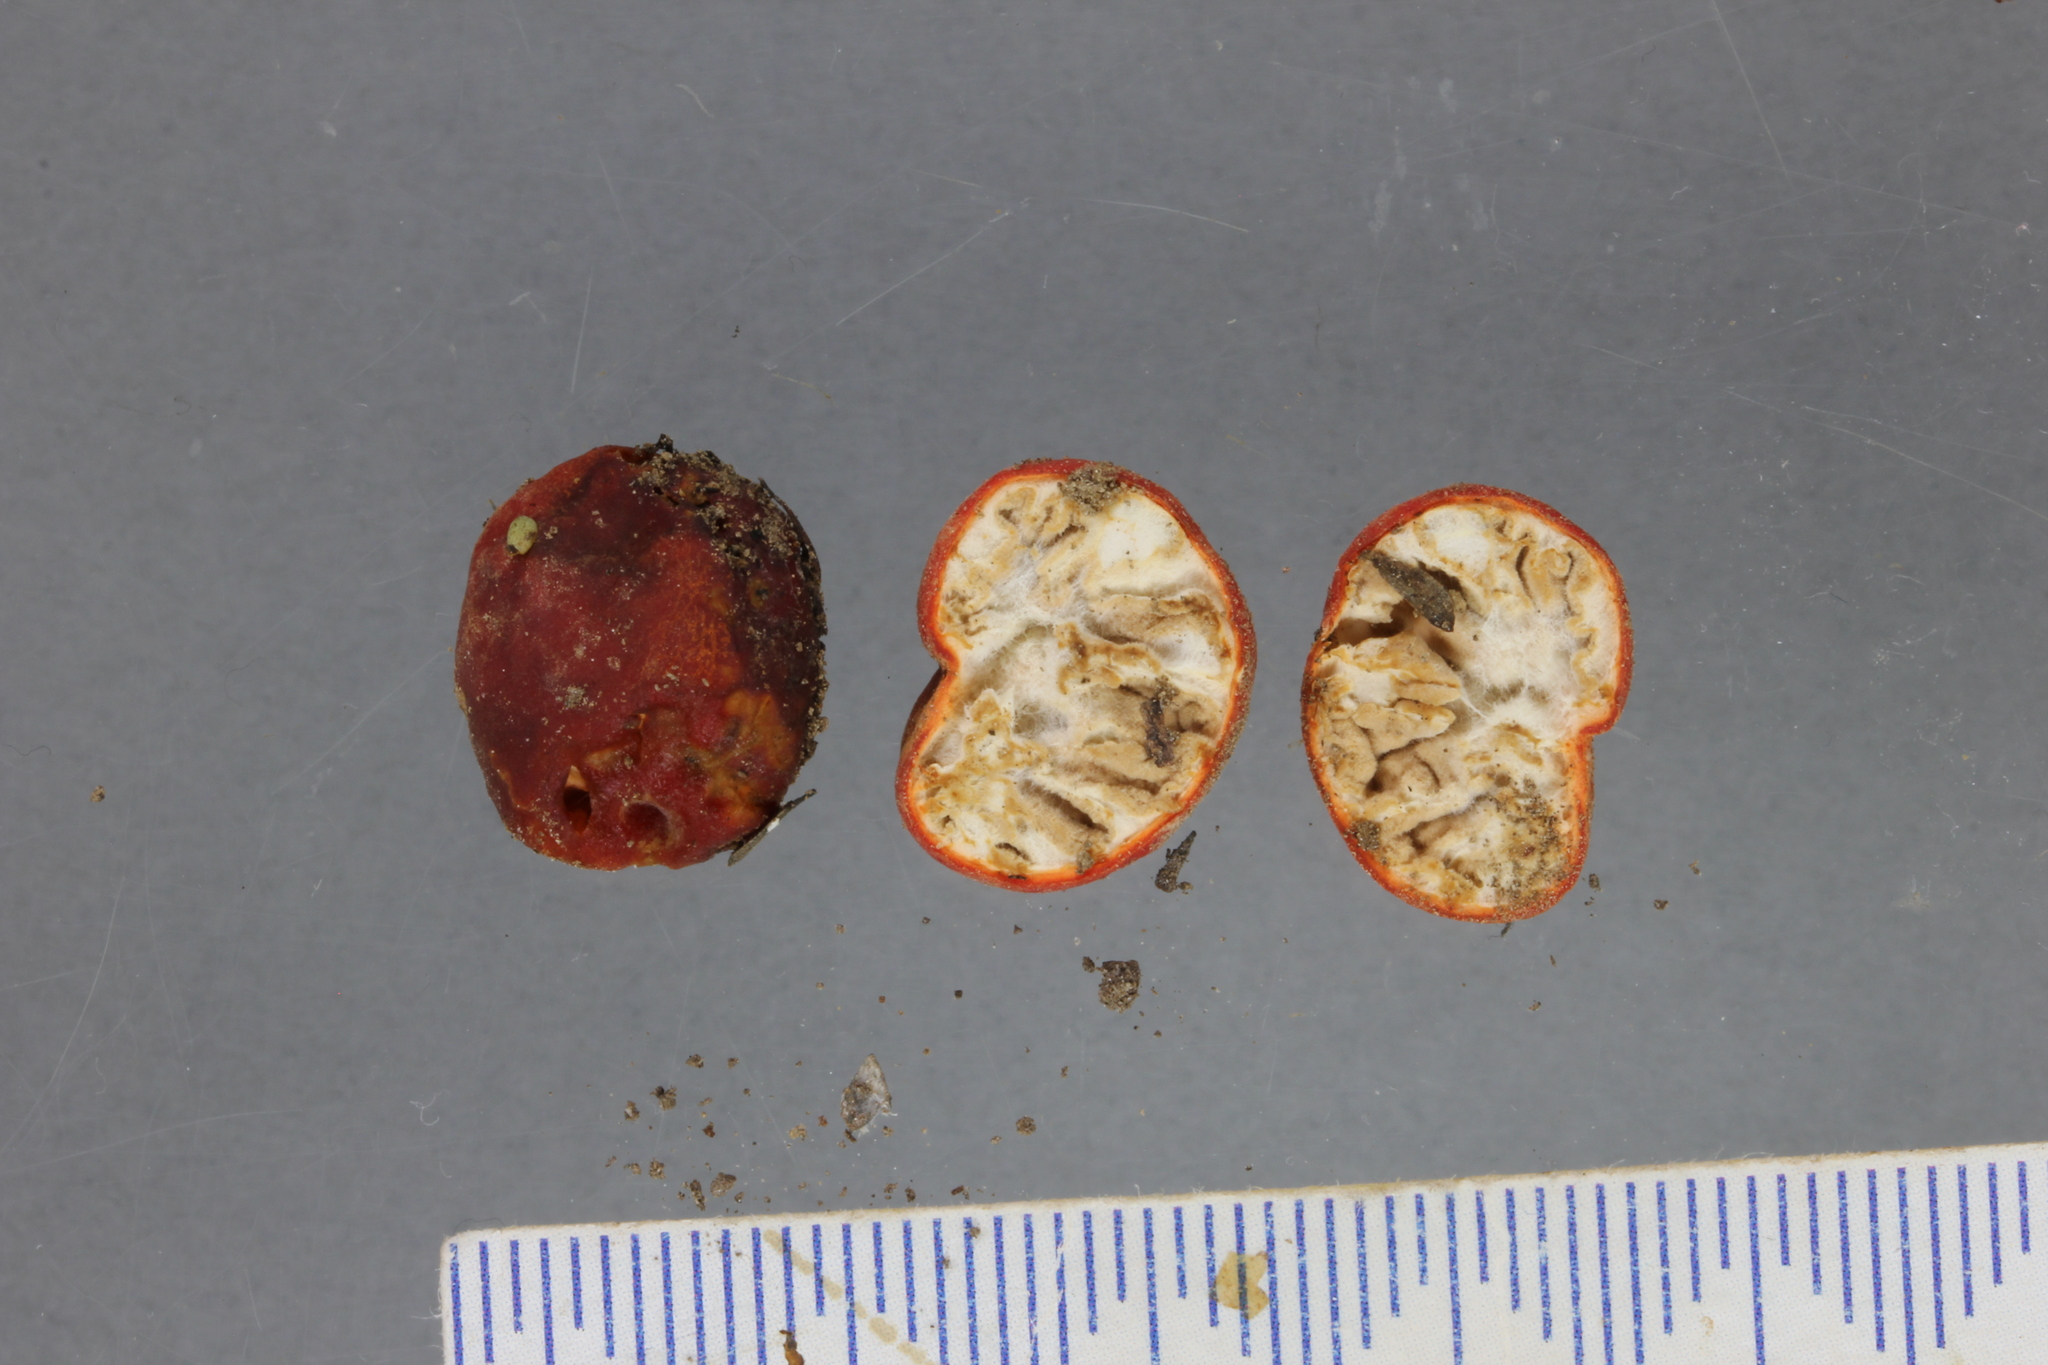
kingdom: Fungi
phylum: Ascomycota
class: Pezizomycetes
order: Pezizales
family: Pyronemataceae
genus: Paurocotylis
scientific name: Paurocotylis pila
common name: Scarlet berry truffle
